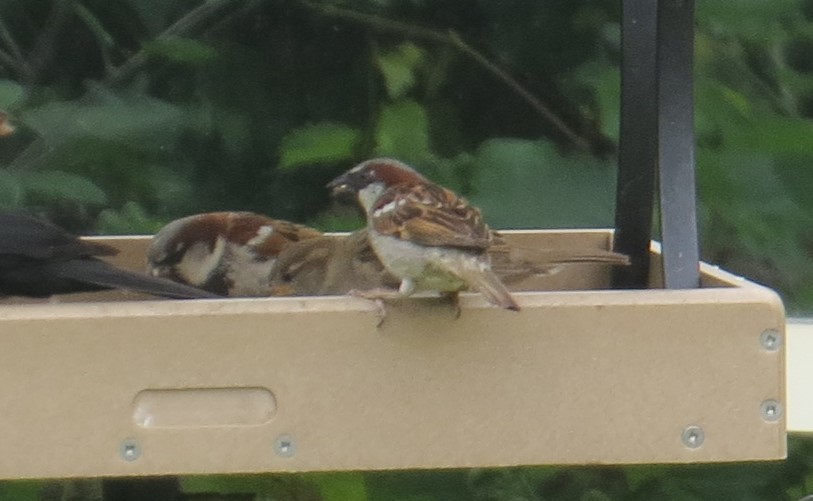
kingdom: Animalia
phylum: Chordata
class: Aves
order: Passeriformes
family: Passeridae
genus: Passer
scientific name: Passer domesticus
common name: House sparrow
